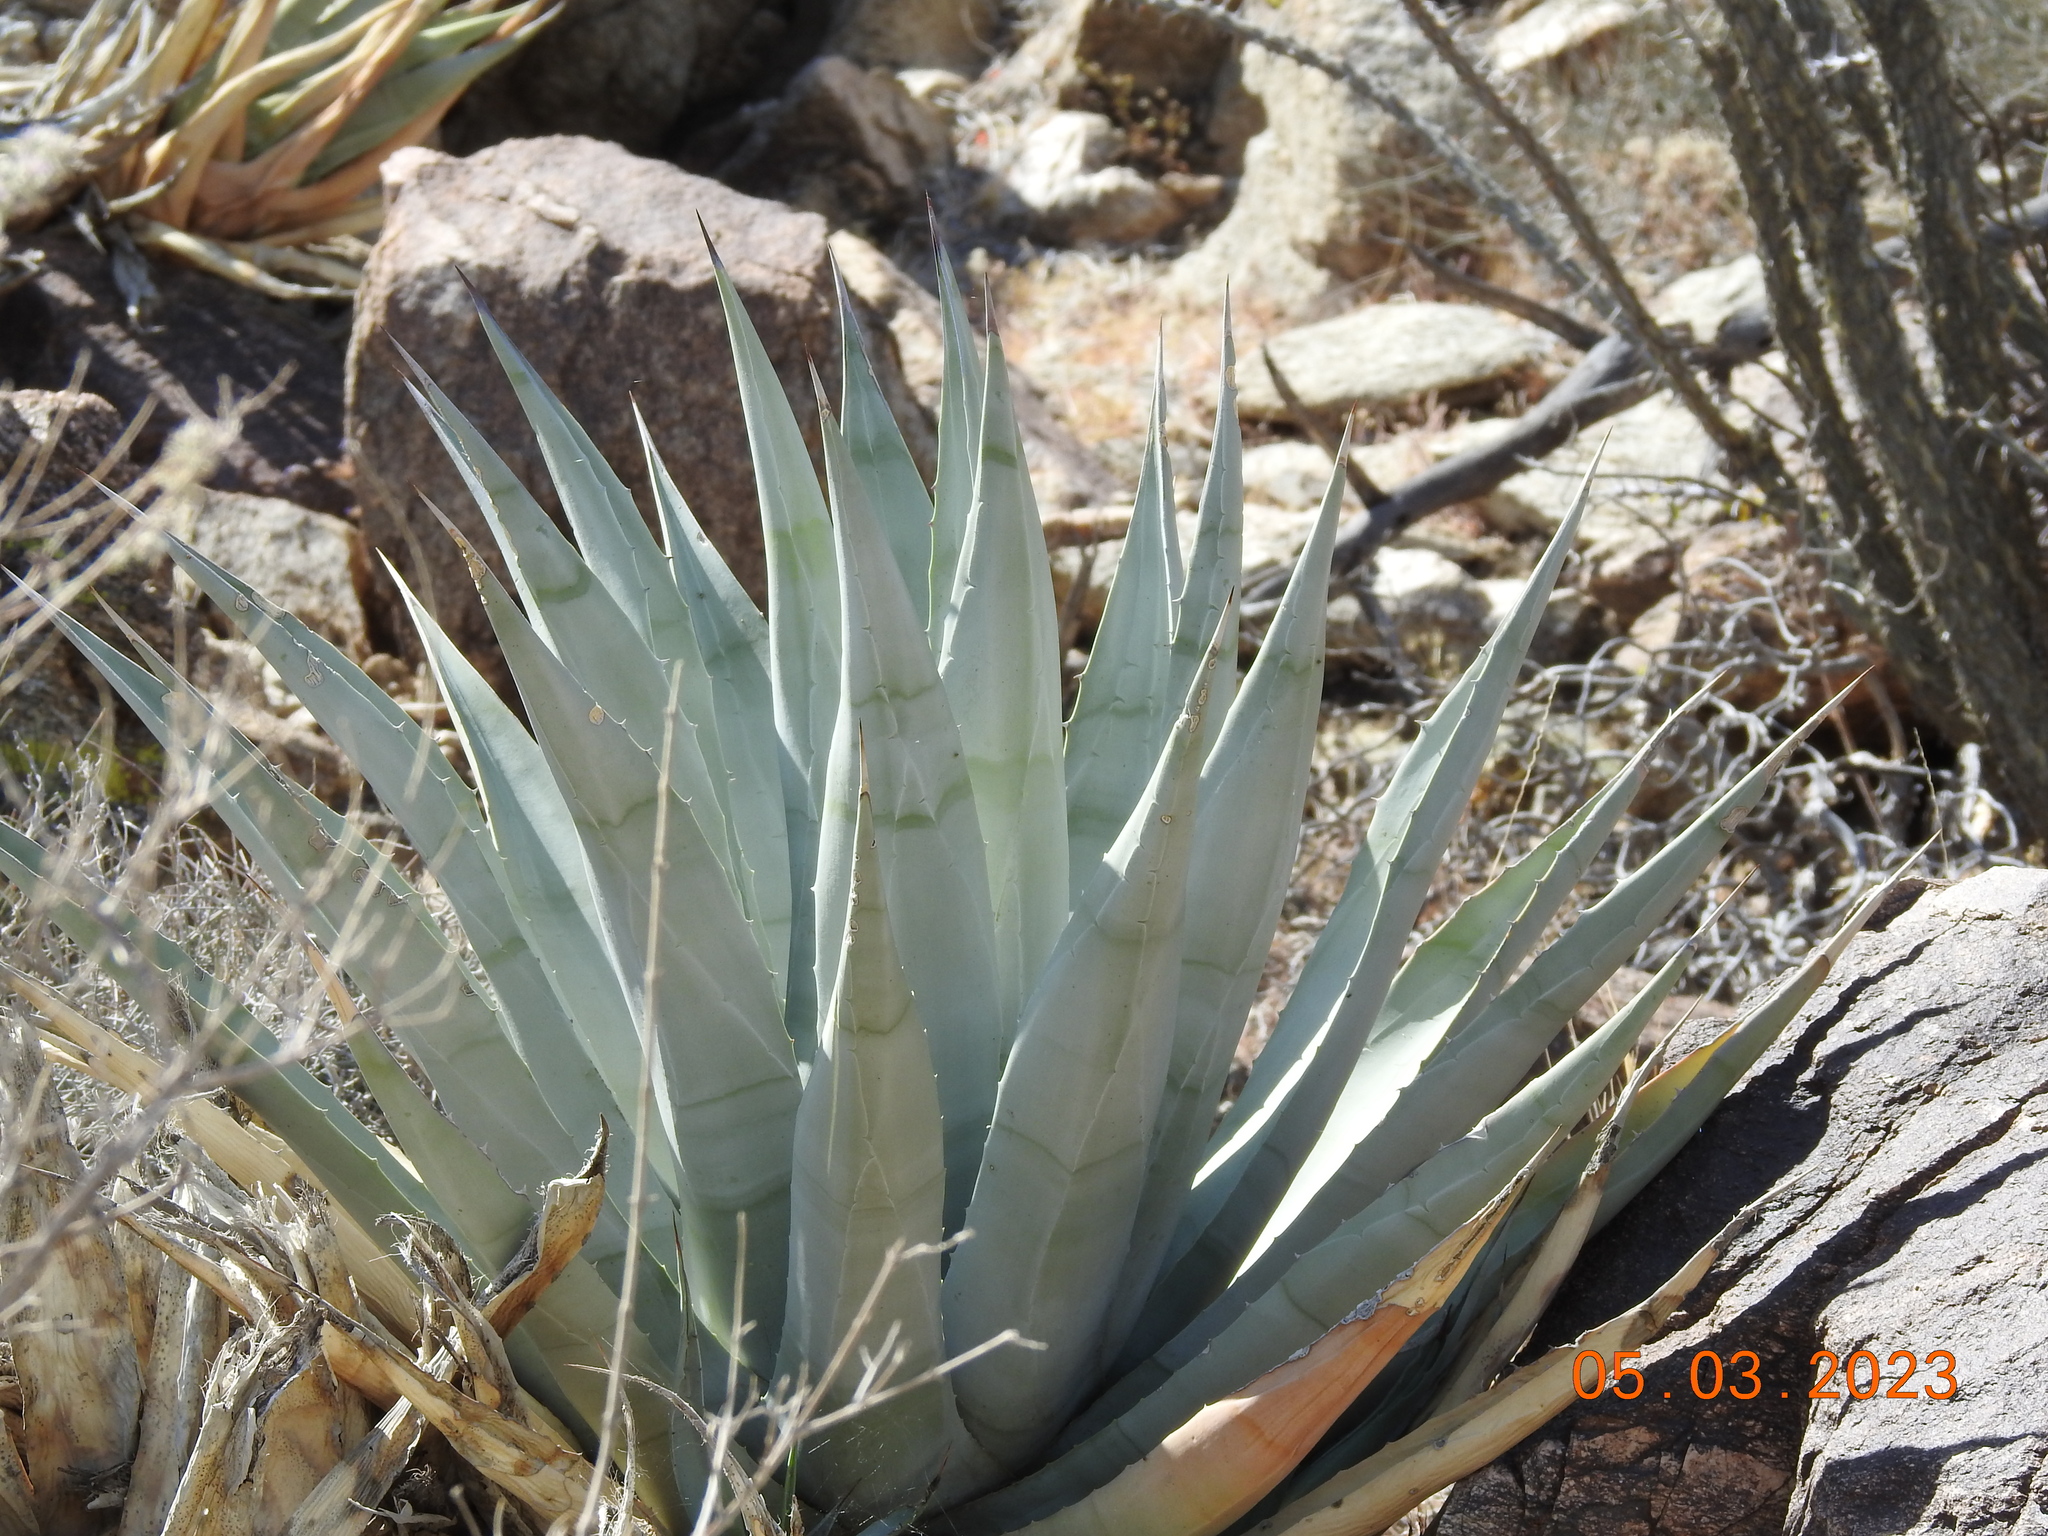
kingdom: Plantae
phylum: Tracheophyta
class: Liliopsida
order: Asparagales
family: Asparagaceae
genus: Agave
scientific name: Agave deserti
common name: Desert agave
